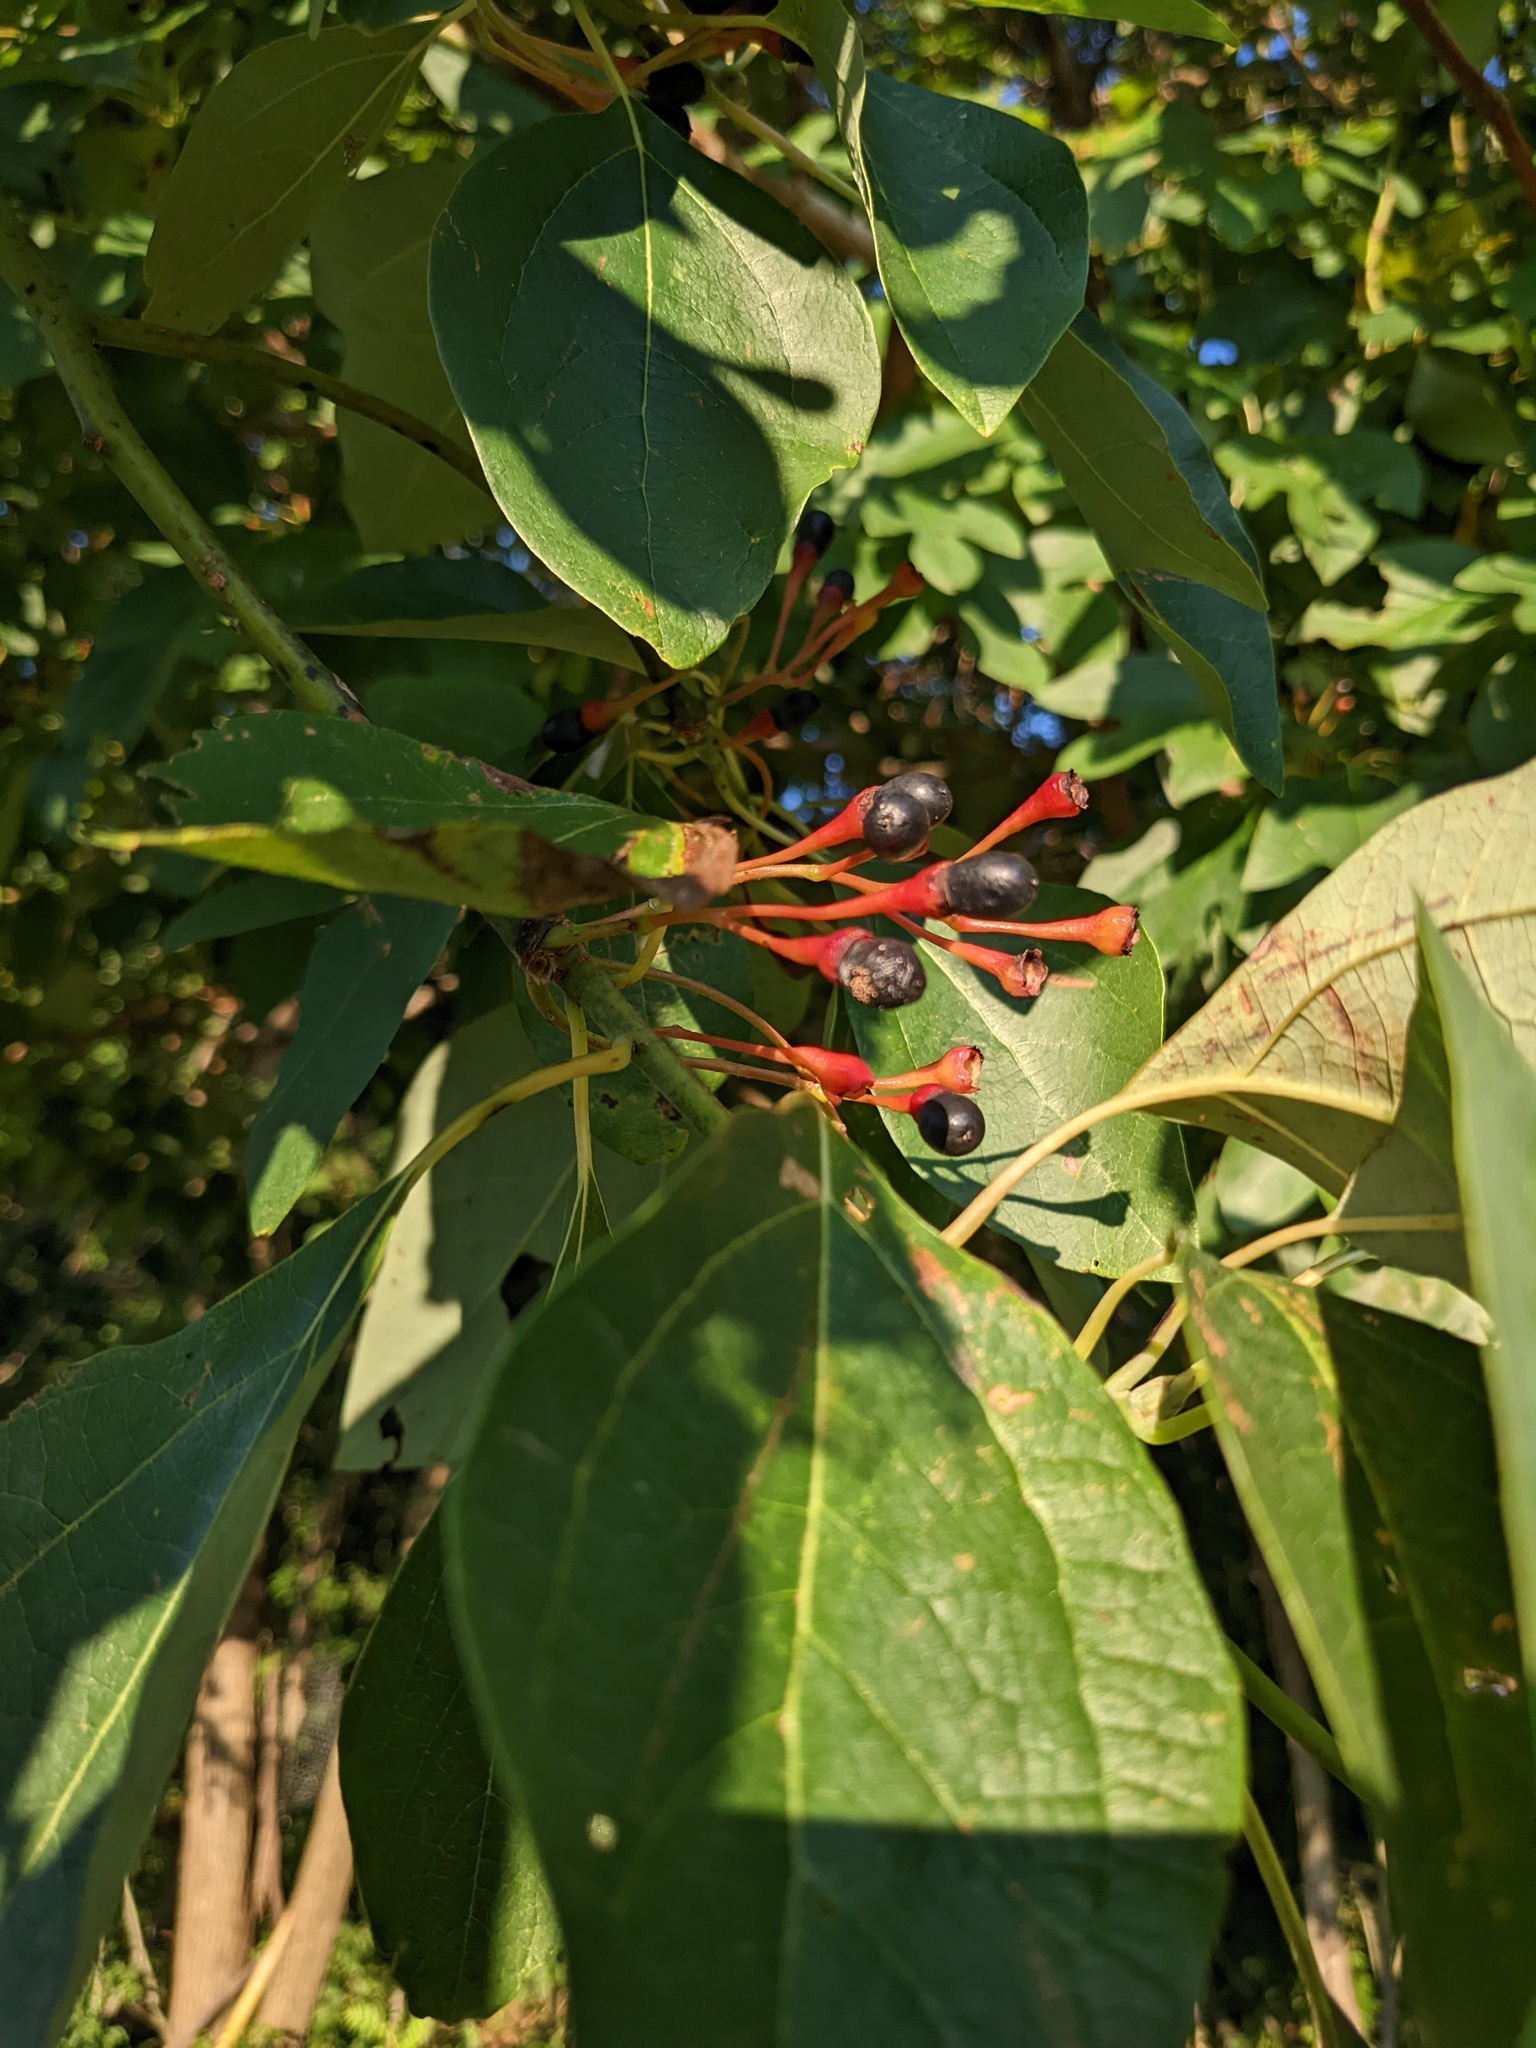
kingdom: Plantae
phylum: Tracheophyta
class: Magnoliopsida
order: Laurales
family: Lauraceae
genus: Sassafras
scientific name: Sassafras albidum
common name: Sassafras
